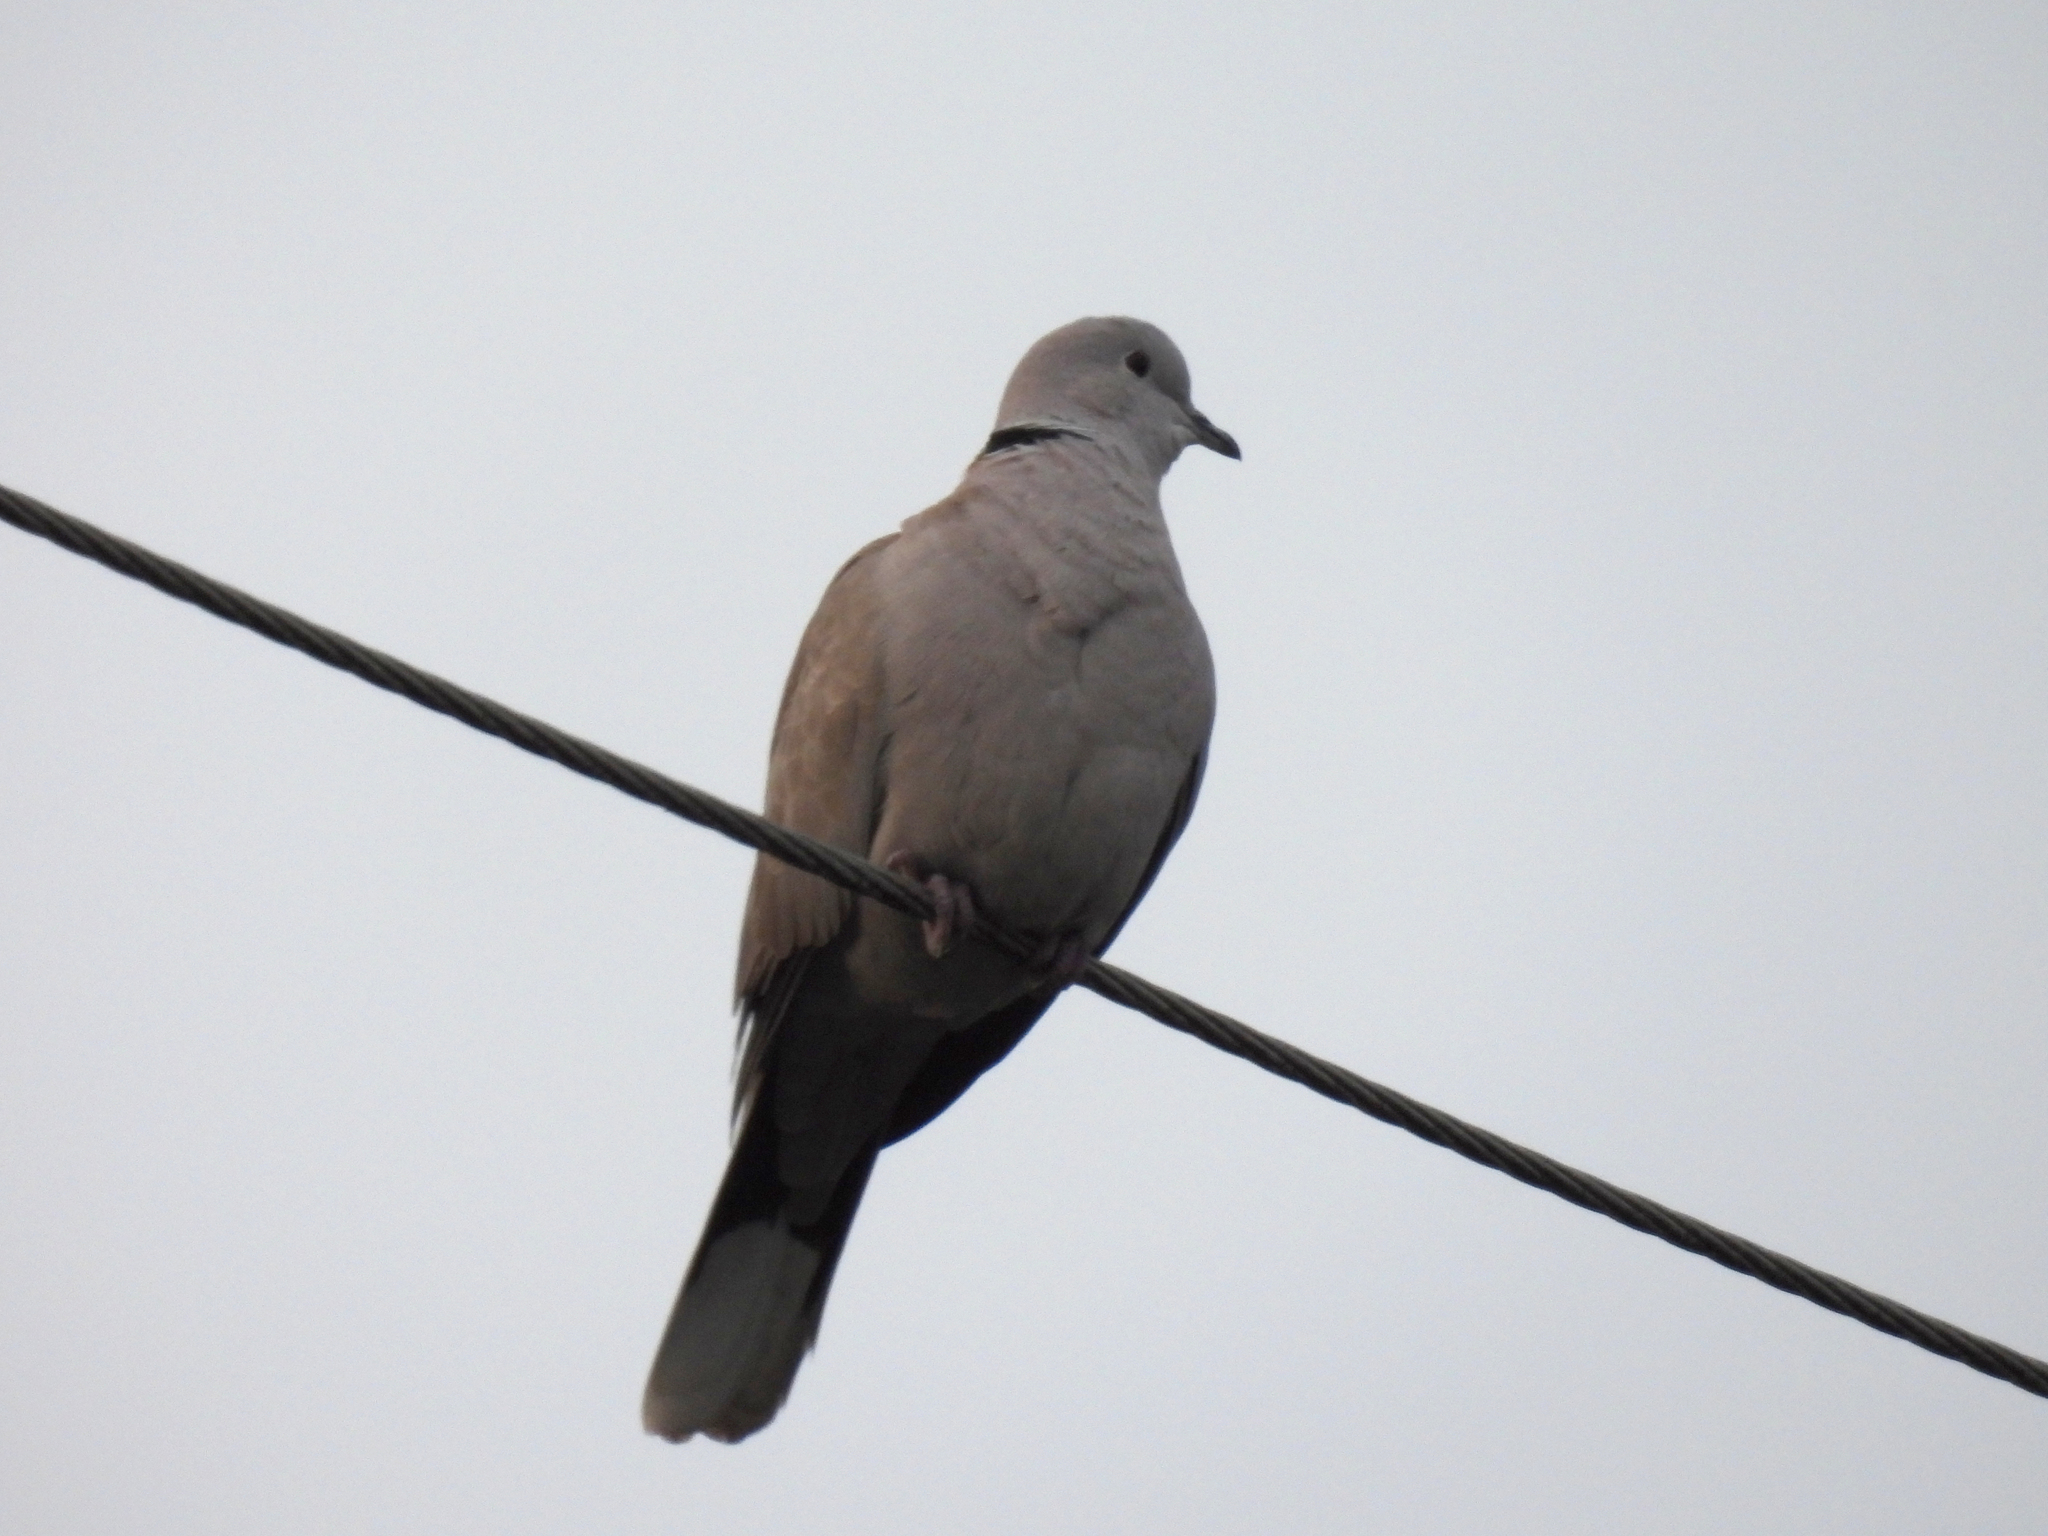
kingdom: Animalia
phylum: Chordata
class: Aves
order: Columbiformes
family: Columbidae
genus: Streptopelia
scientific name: Streptopelia decaocto
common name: Eurasian collared dove
